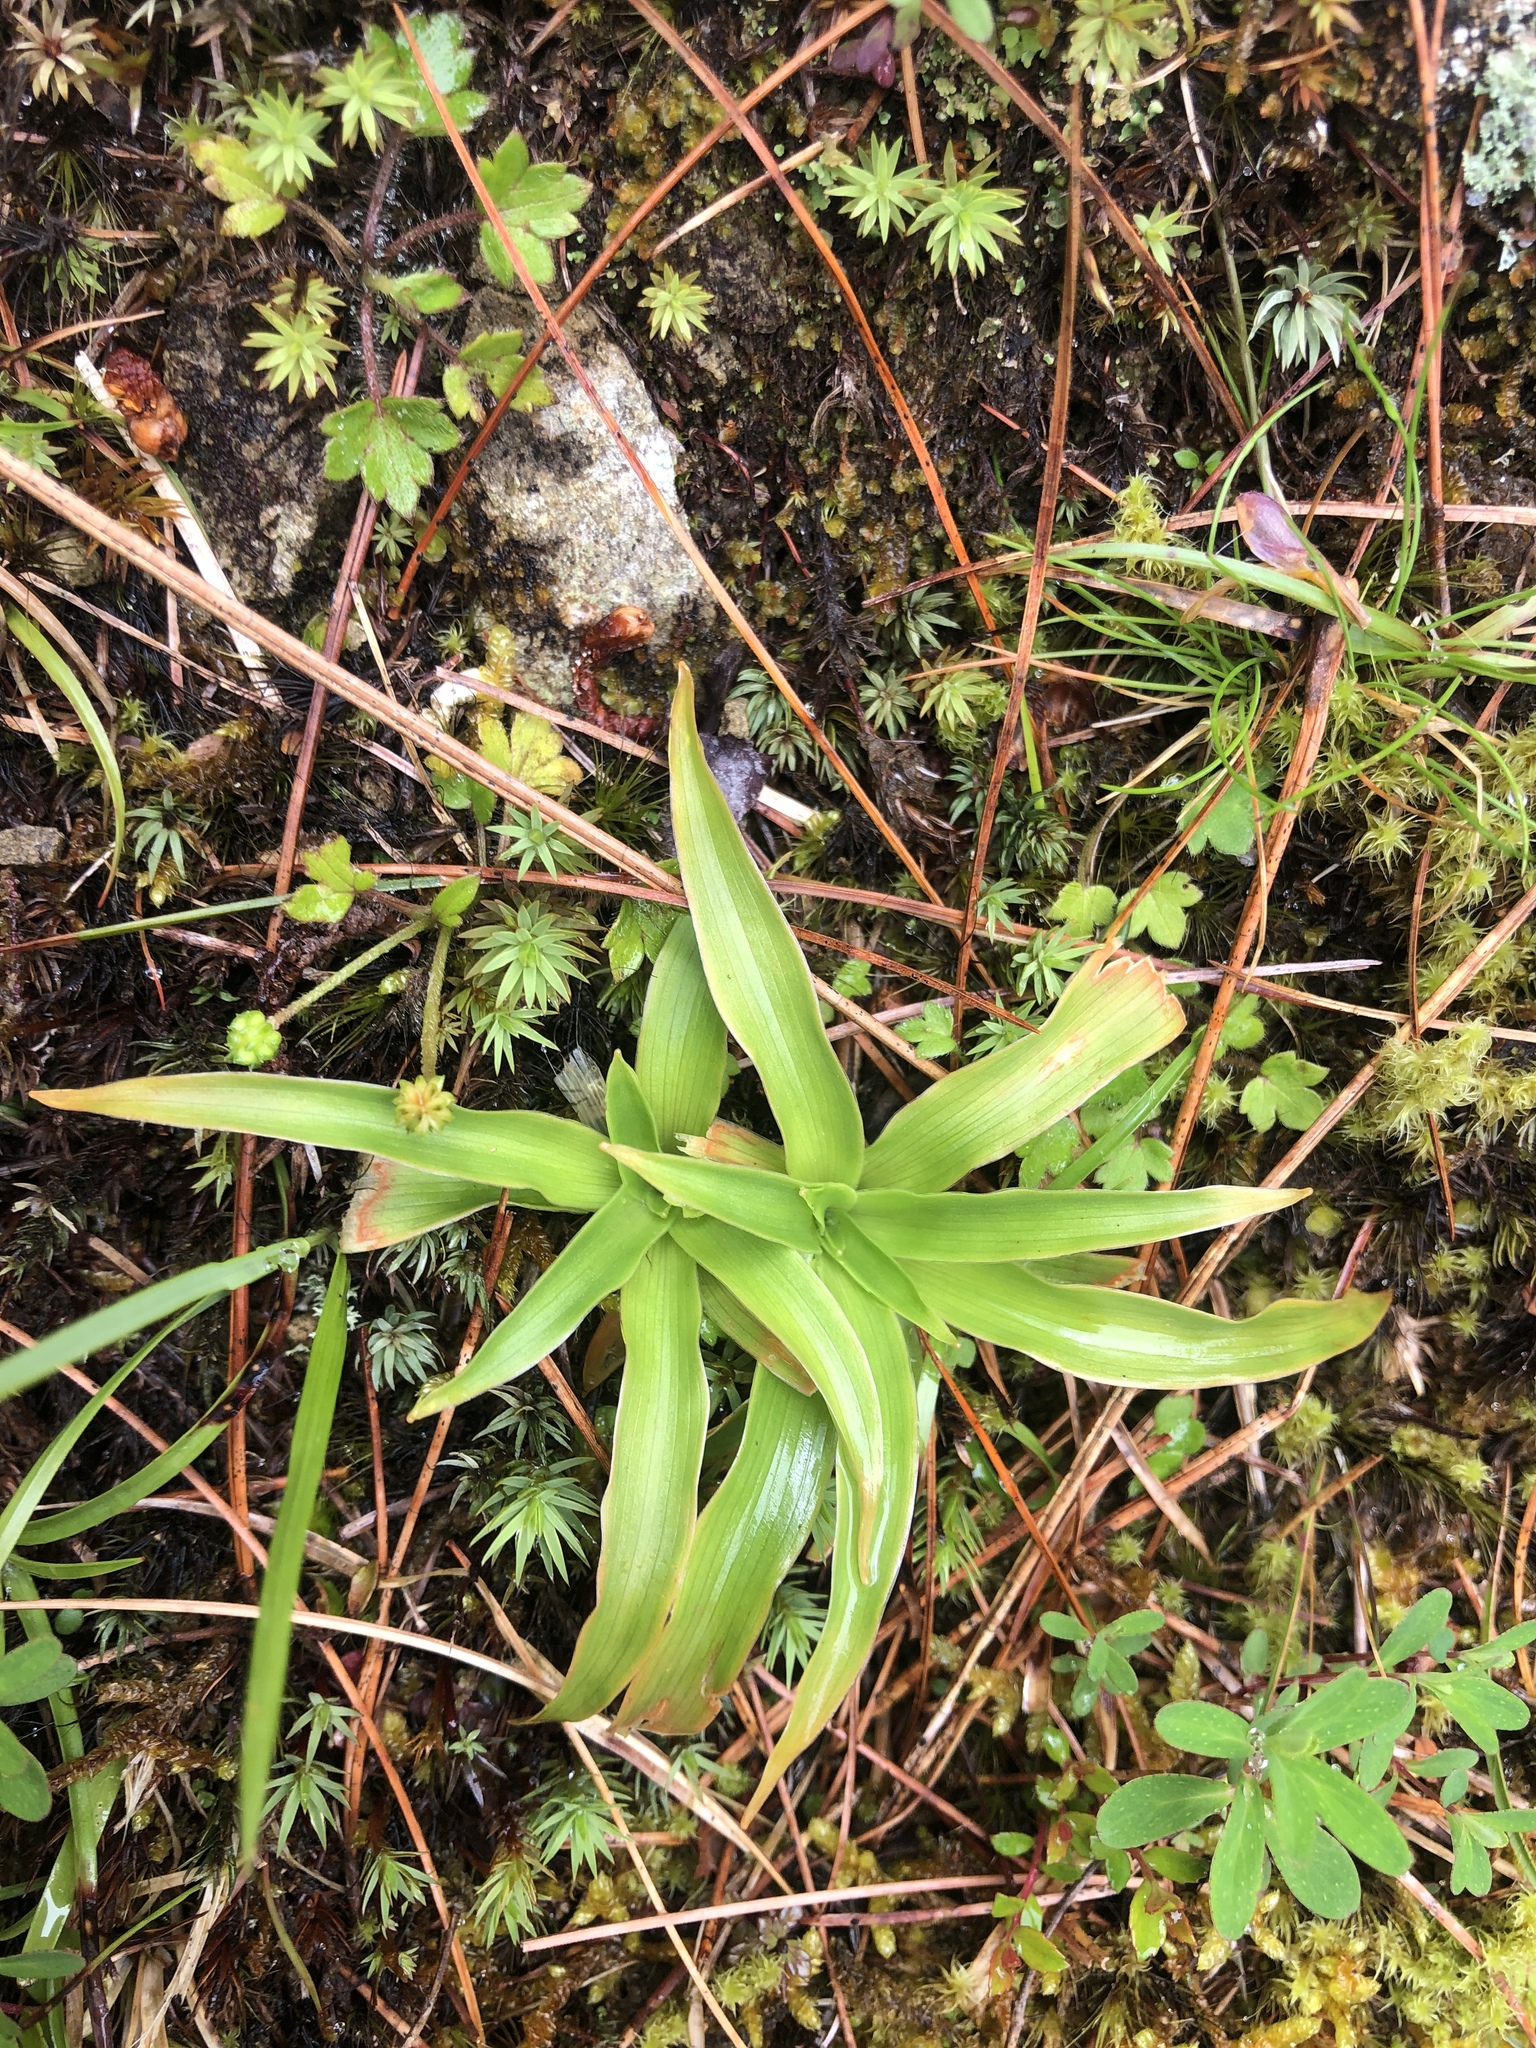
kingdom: Plantae
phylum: Tracheophyta
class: Liliopsida
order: Dioscoreales
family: Nartheciaceae
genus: Aletris
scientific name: Aletris glabra
